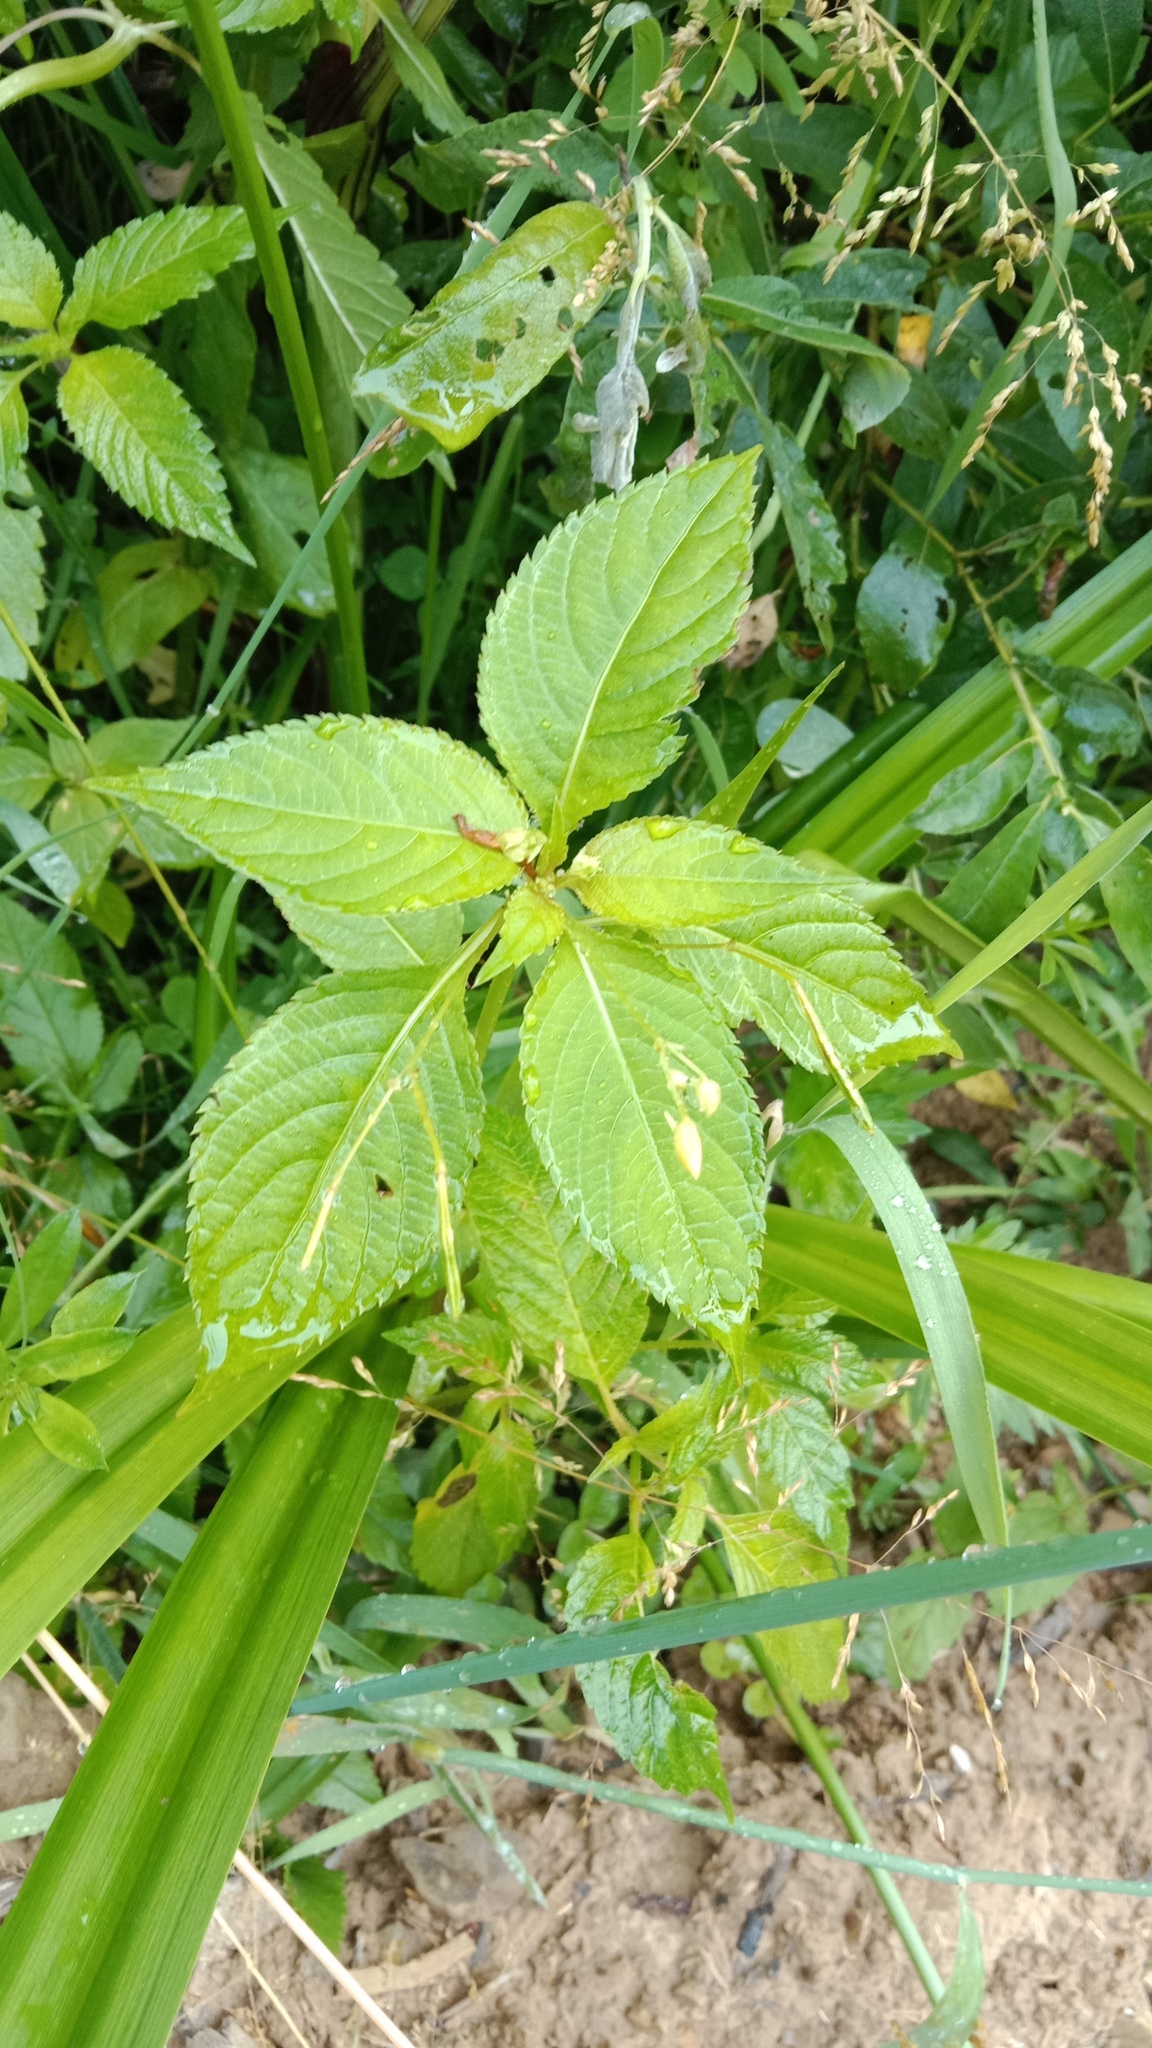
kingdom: Plantae
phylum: Tracheophyta
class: Magnoliopsida
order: Ericales
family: Balsaminaceae
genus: Impatiens
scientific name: Impatiens parviflora
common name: Small balsam
